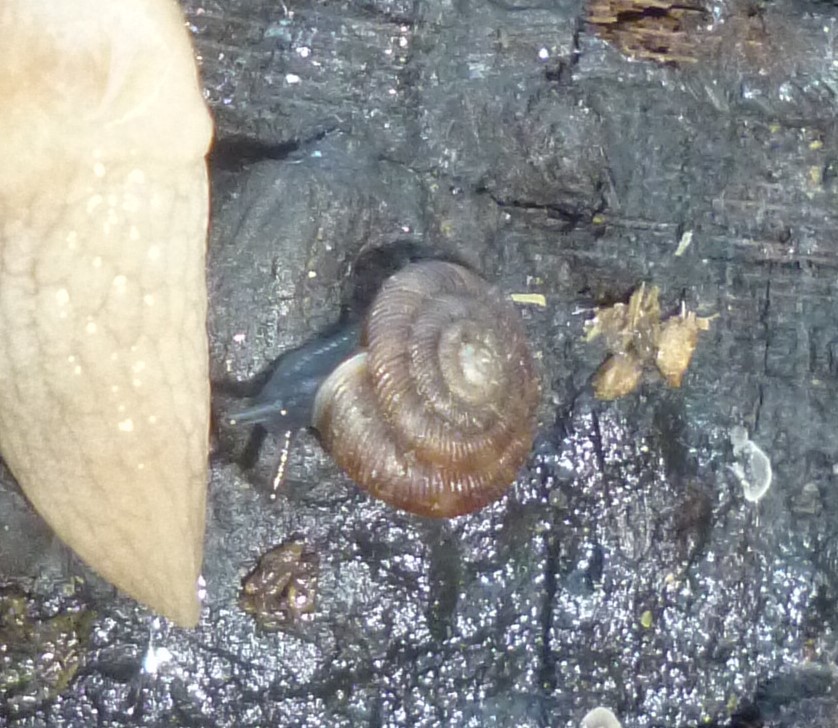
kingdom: Animalia
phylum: Mollusca
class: Gastropoda
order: Stylommatophora
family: Discidae
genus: Discus
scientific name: Discus rotundatus
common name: Rounded snail
